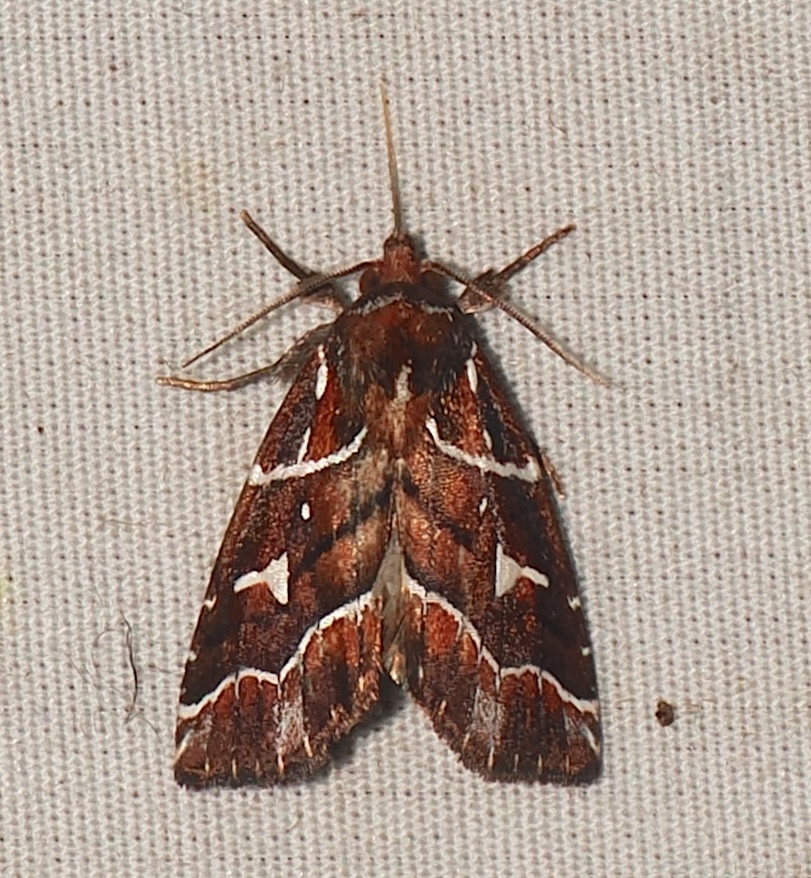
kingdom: Animalia
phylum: Arthropoda
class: Insecta
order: Lepidoptera
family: Noctuidae
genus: Selambina
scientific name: Selambina trajiciens
